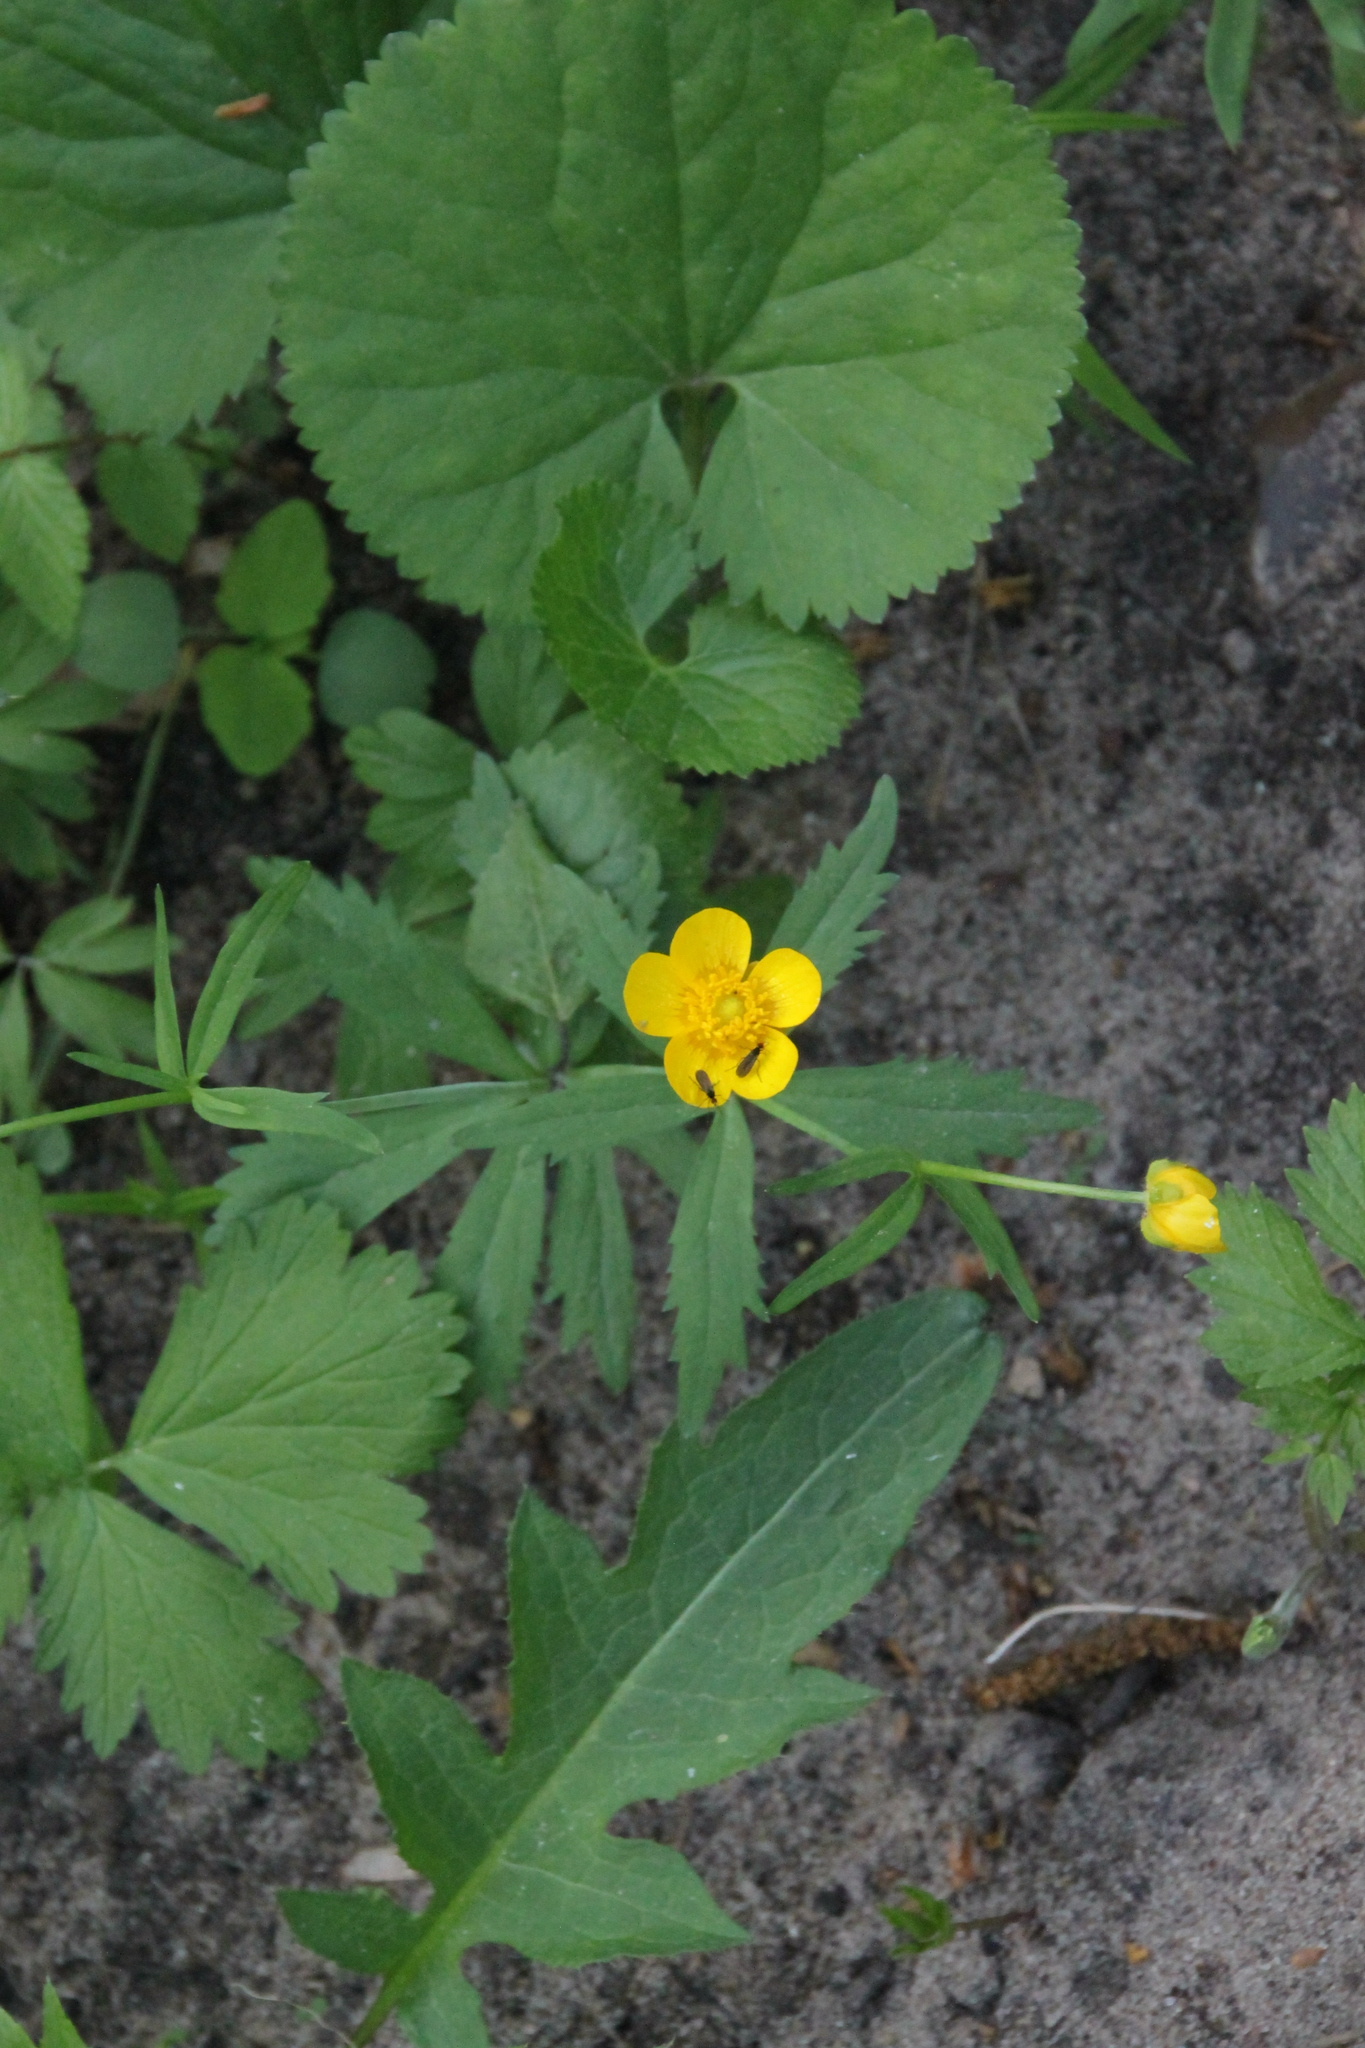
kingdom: Plantae
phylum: Tracheophyta
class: Magnoliopsida
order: Ranunculales
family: Ranunculaceae
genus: Ranunculus
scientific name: Ranunculus cassubicus
